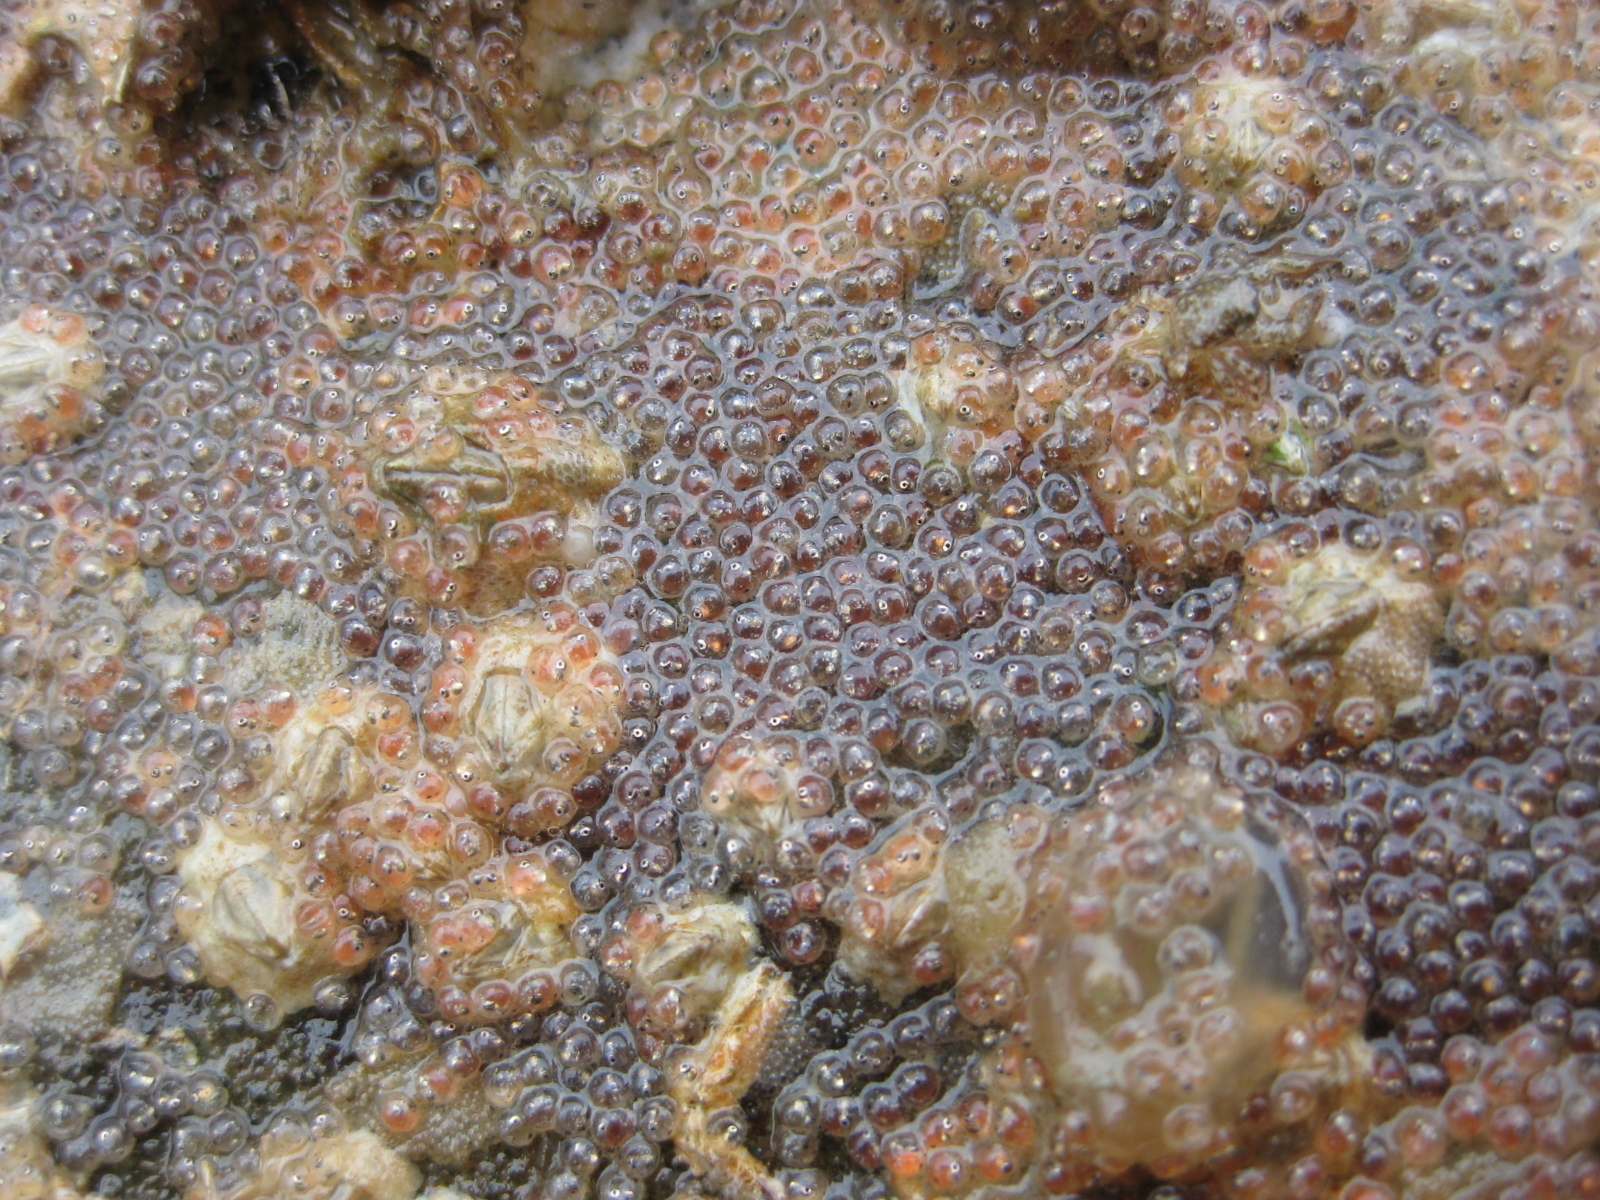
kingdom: Animalia
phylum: Chordata
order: Perciformes
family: Tripterygiidae
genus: Forsterygion
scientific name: Forsterygion nigripenne
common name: Cockabully
